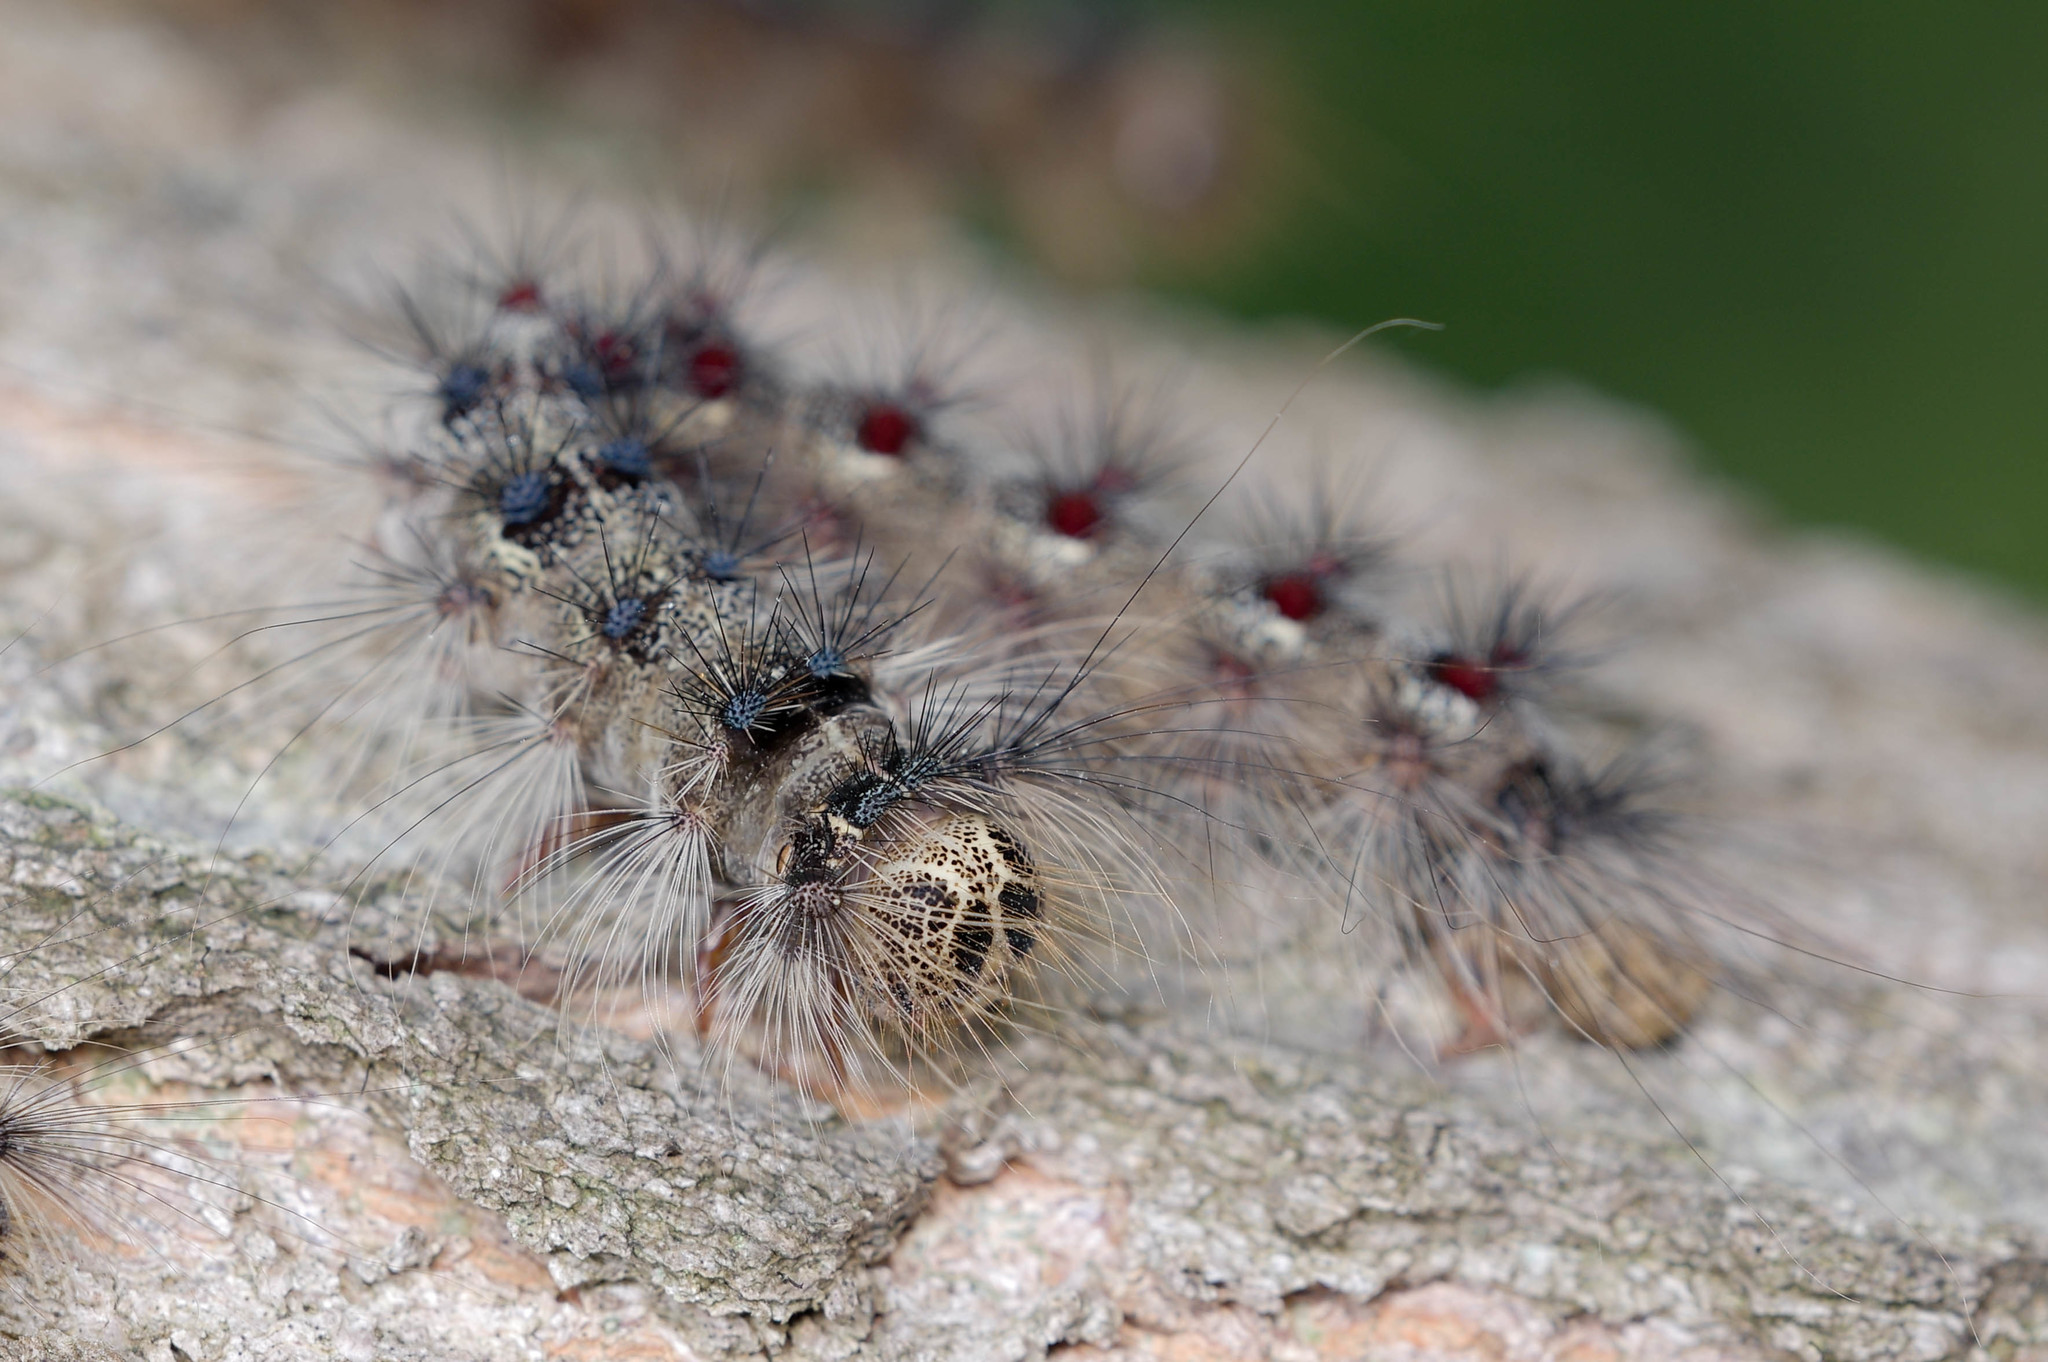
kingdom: Animalia
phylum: Arthropoda
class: Insecta
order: Lepidoptera
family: Erebidae
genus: Lymantria
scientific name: Lymantria dispar
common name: Gypsy moth
